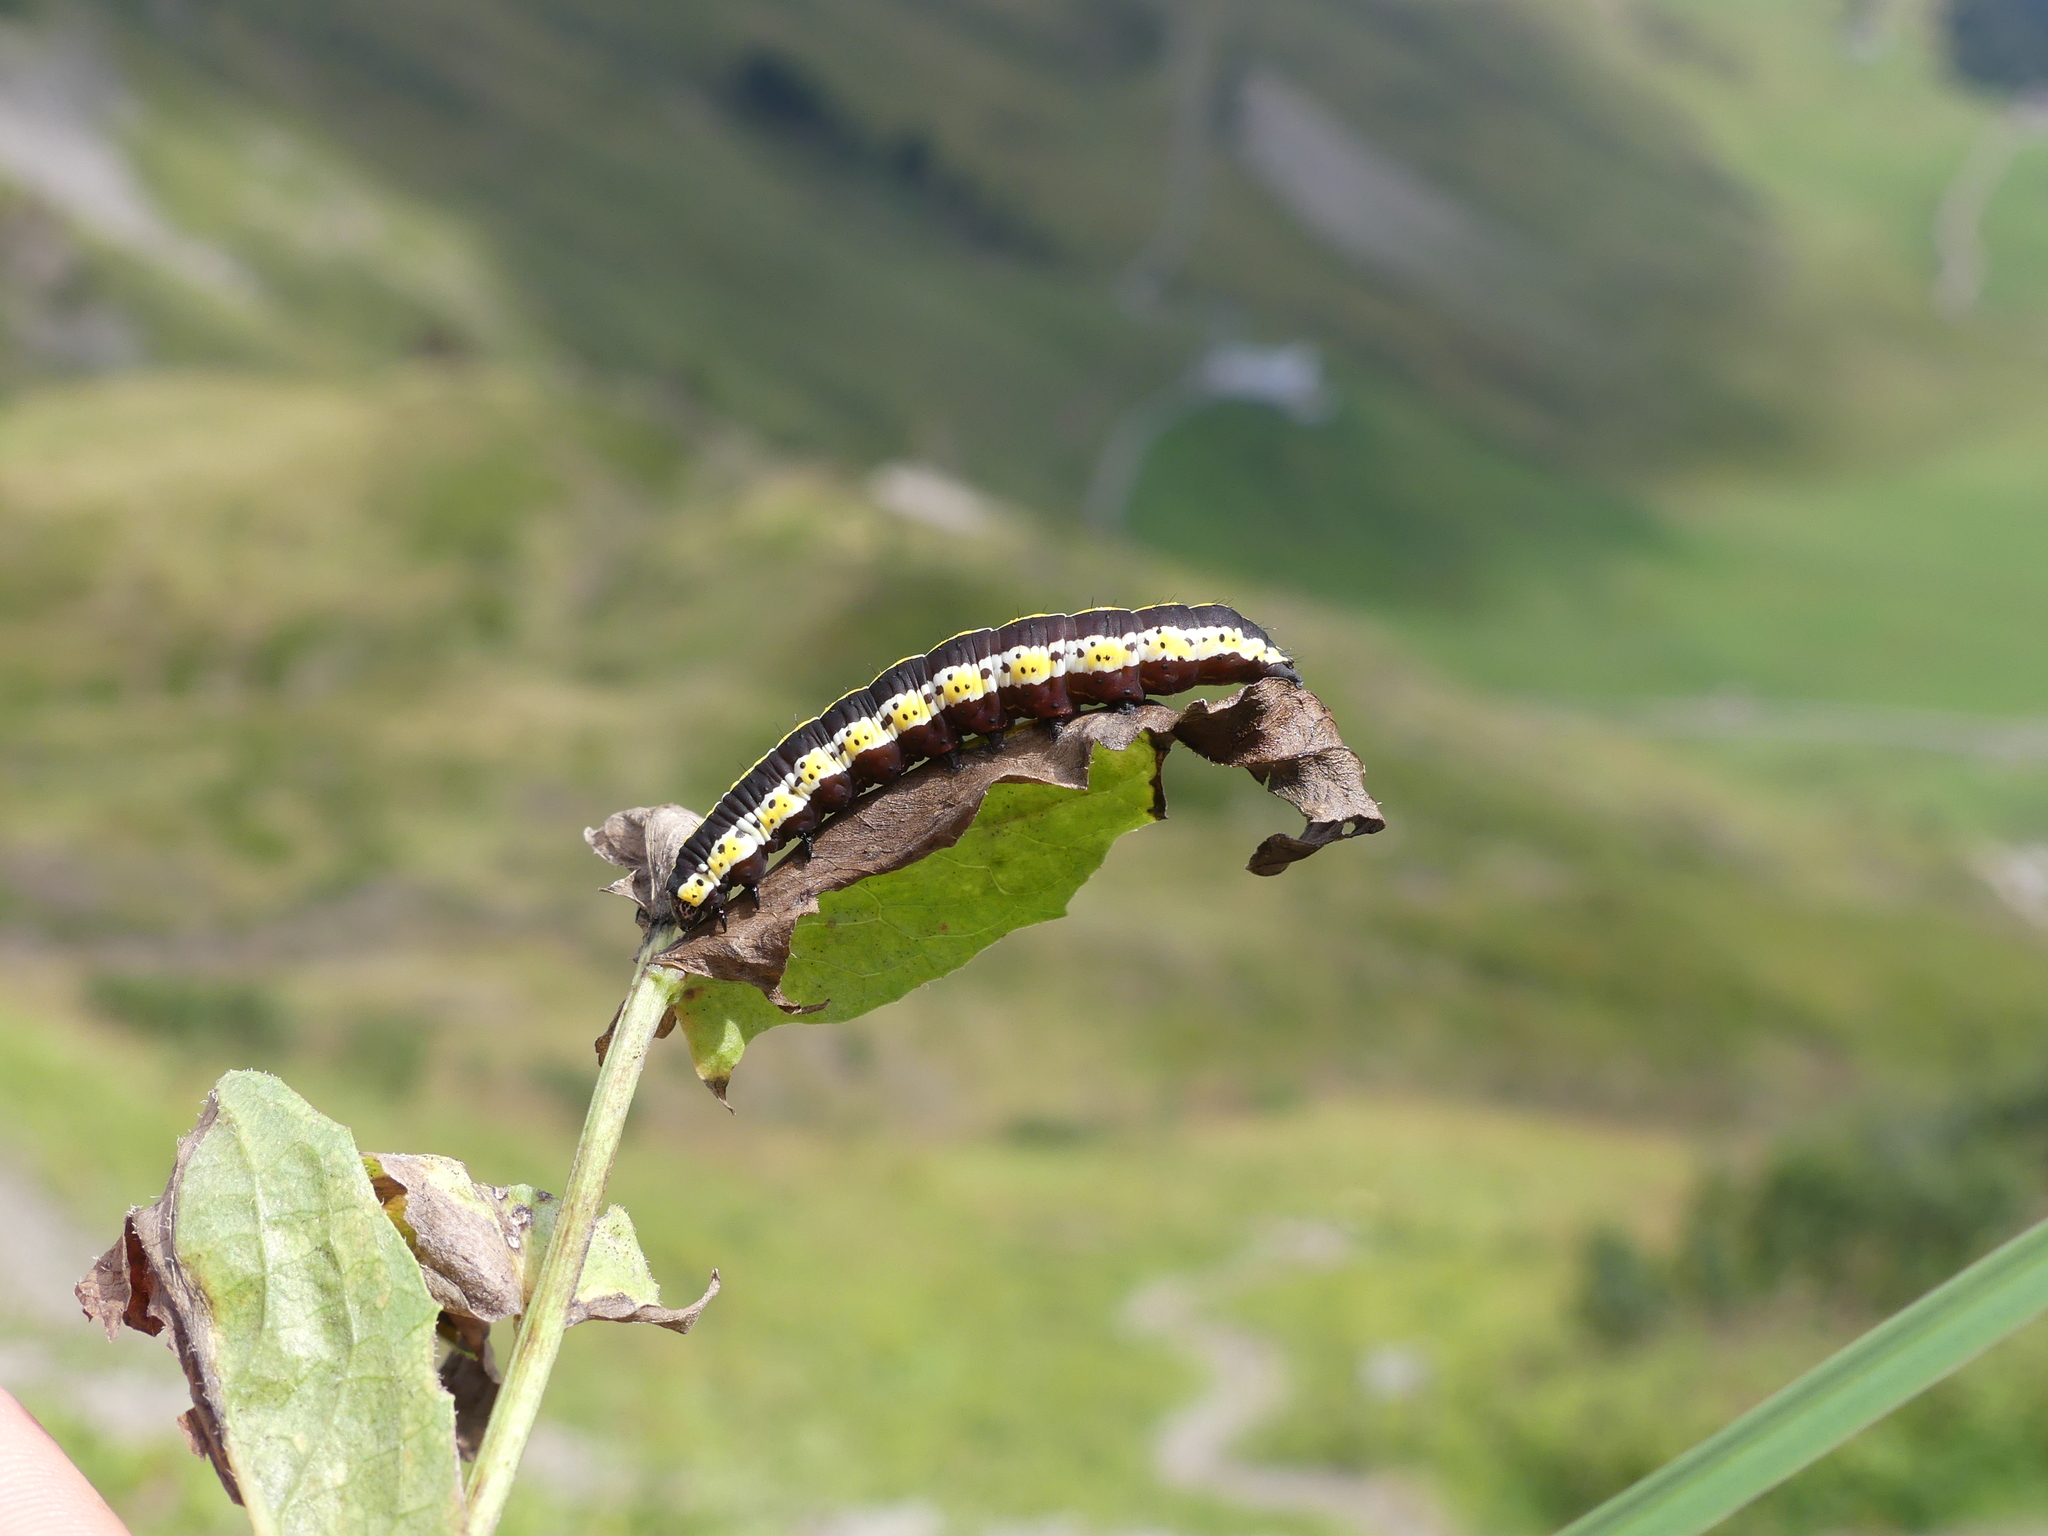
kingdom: Animalia
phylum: Arthropoda
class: Insecta
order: Lepidoptera
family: Noctuidae
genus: Cucullia
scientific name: Cucullia lucifuga
